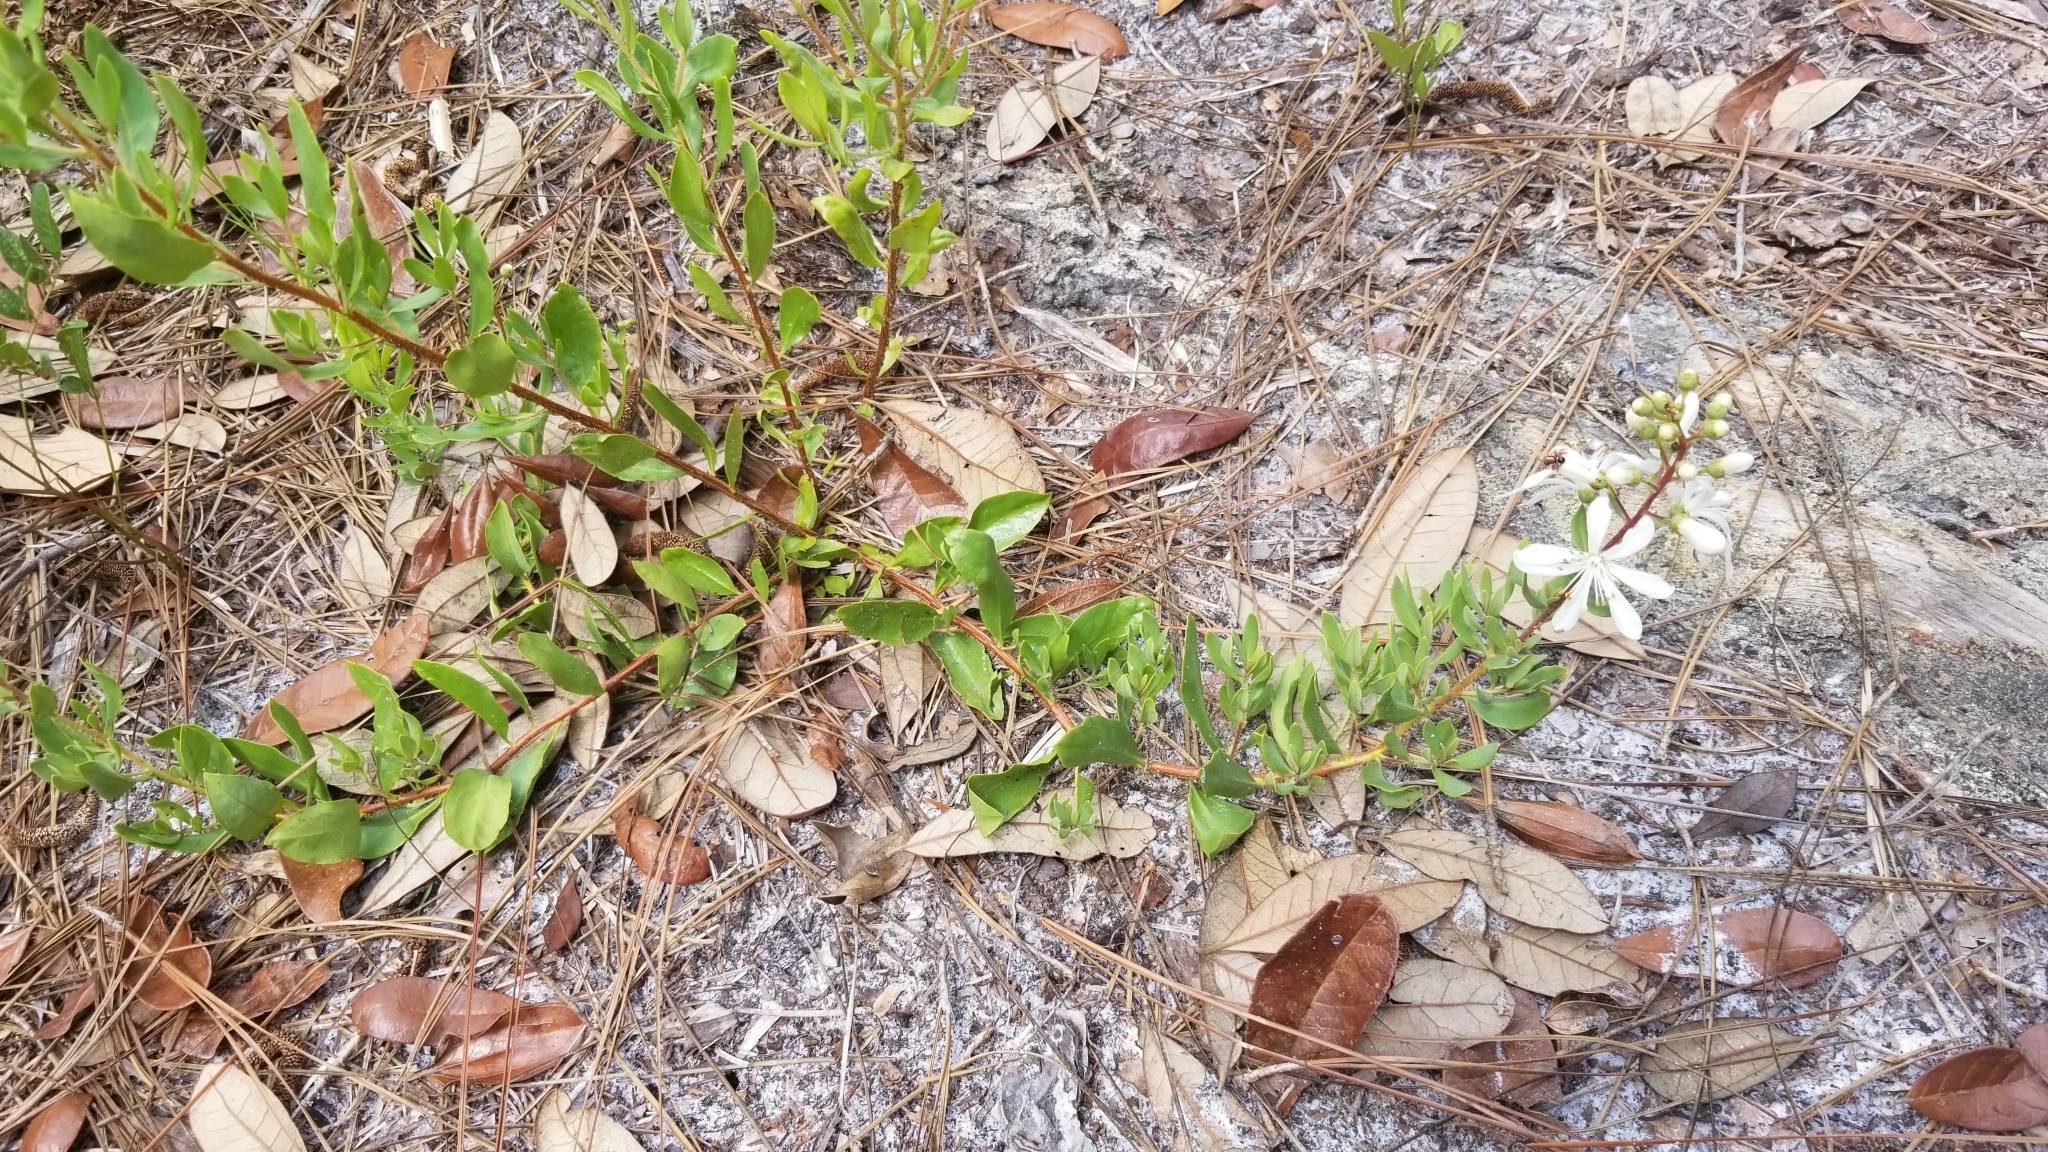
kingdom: Plantae
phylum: Tracheophyta
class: Magnoliopsida
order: Ericales
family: Ericaceae
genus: Bejaria
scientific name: Bejaria racemosa
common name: Tarflower
